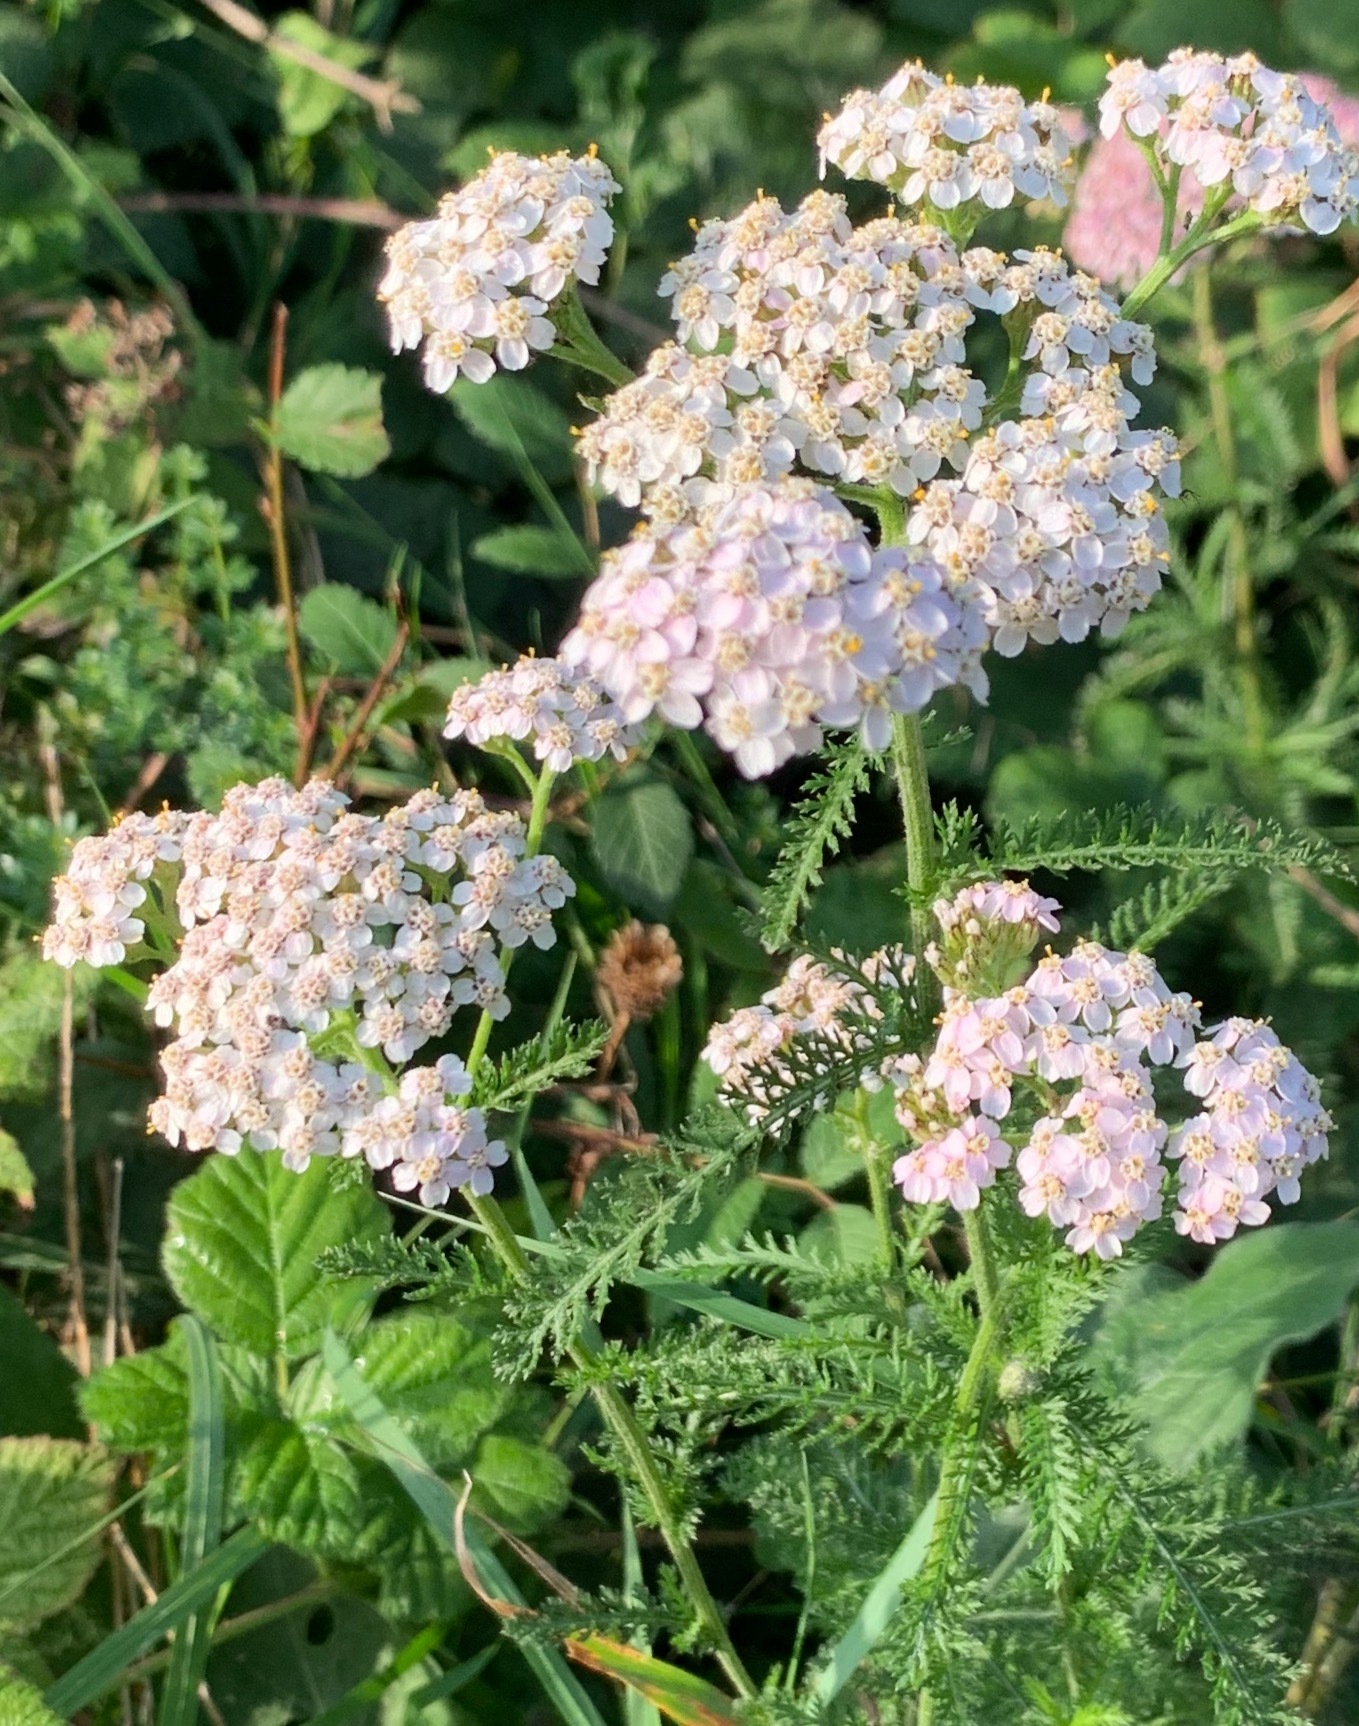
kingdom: Plantae
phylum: Tracheophyta
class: Magnoliopsida
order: Asterales
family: Asteraceae
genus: Achillea
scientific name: Achillea millefolium
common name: Yarrow
